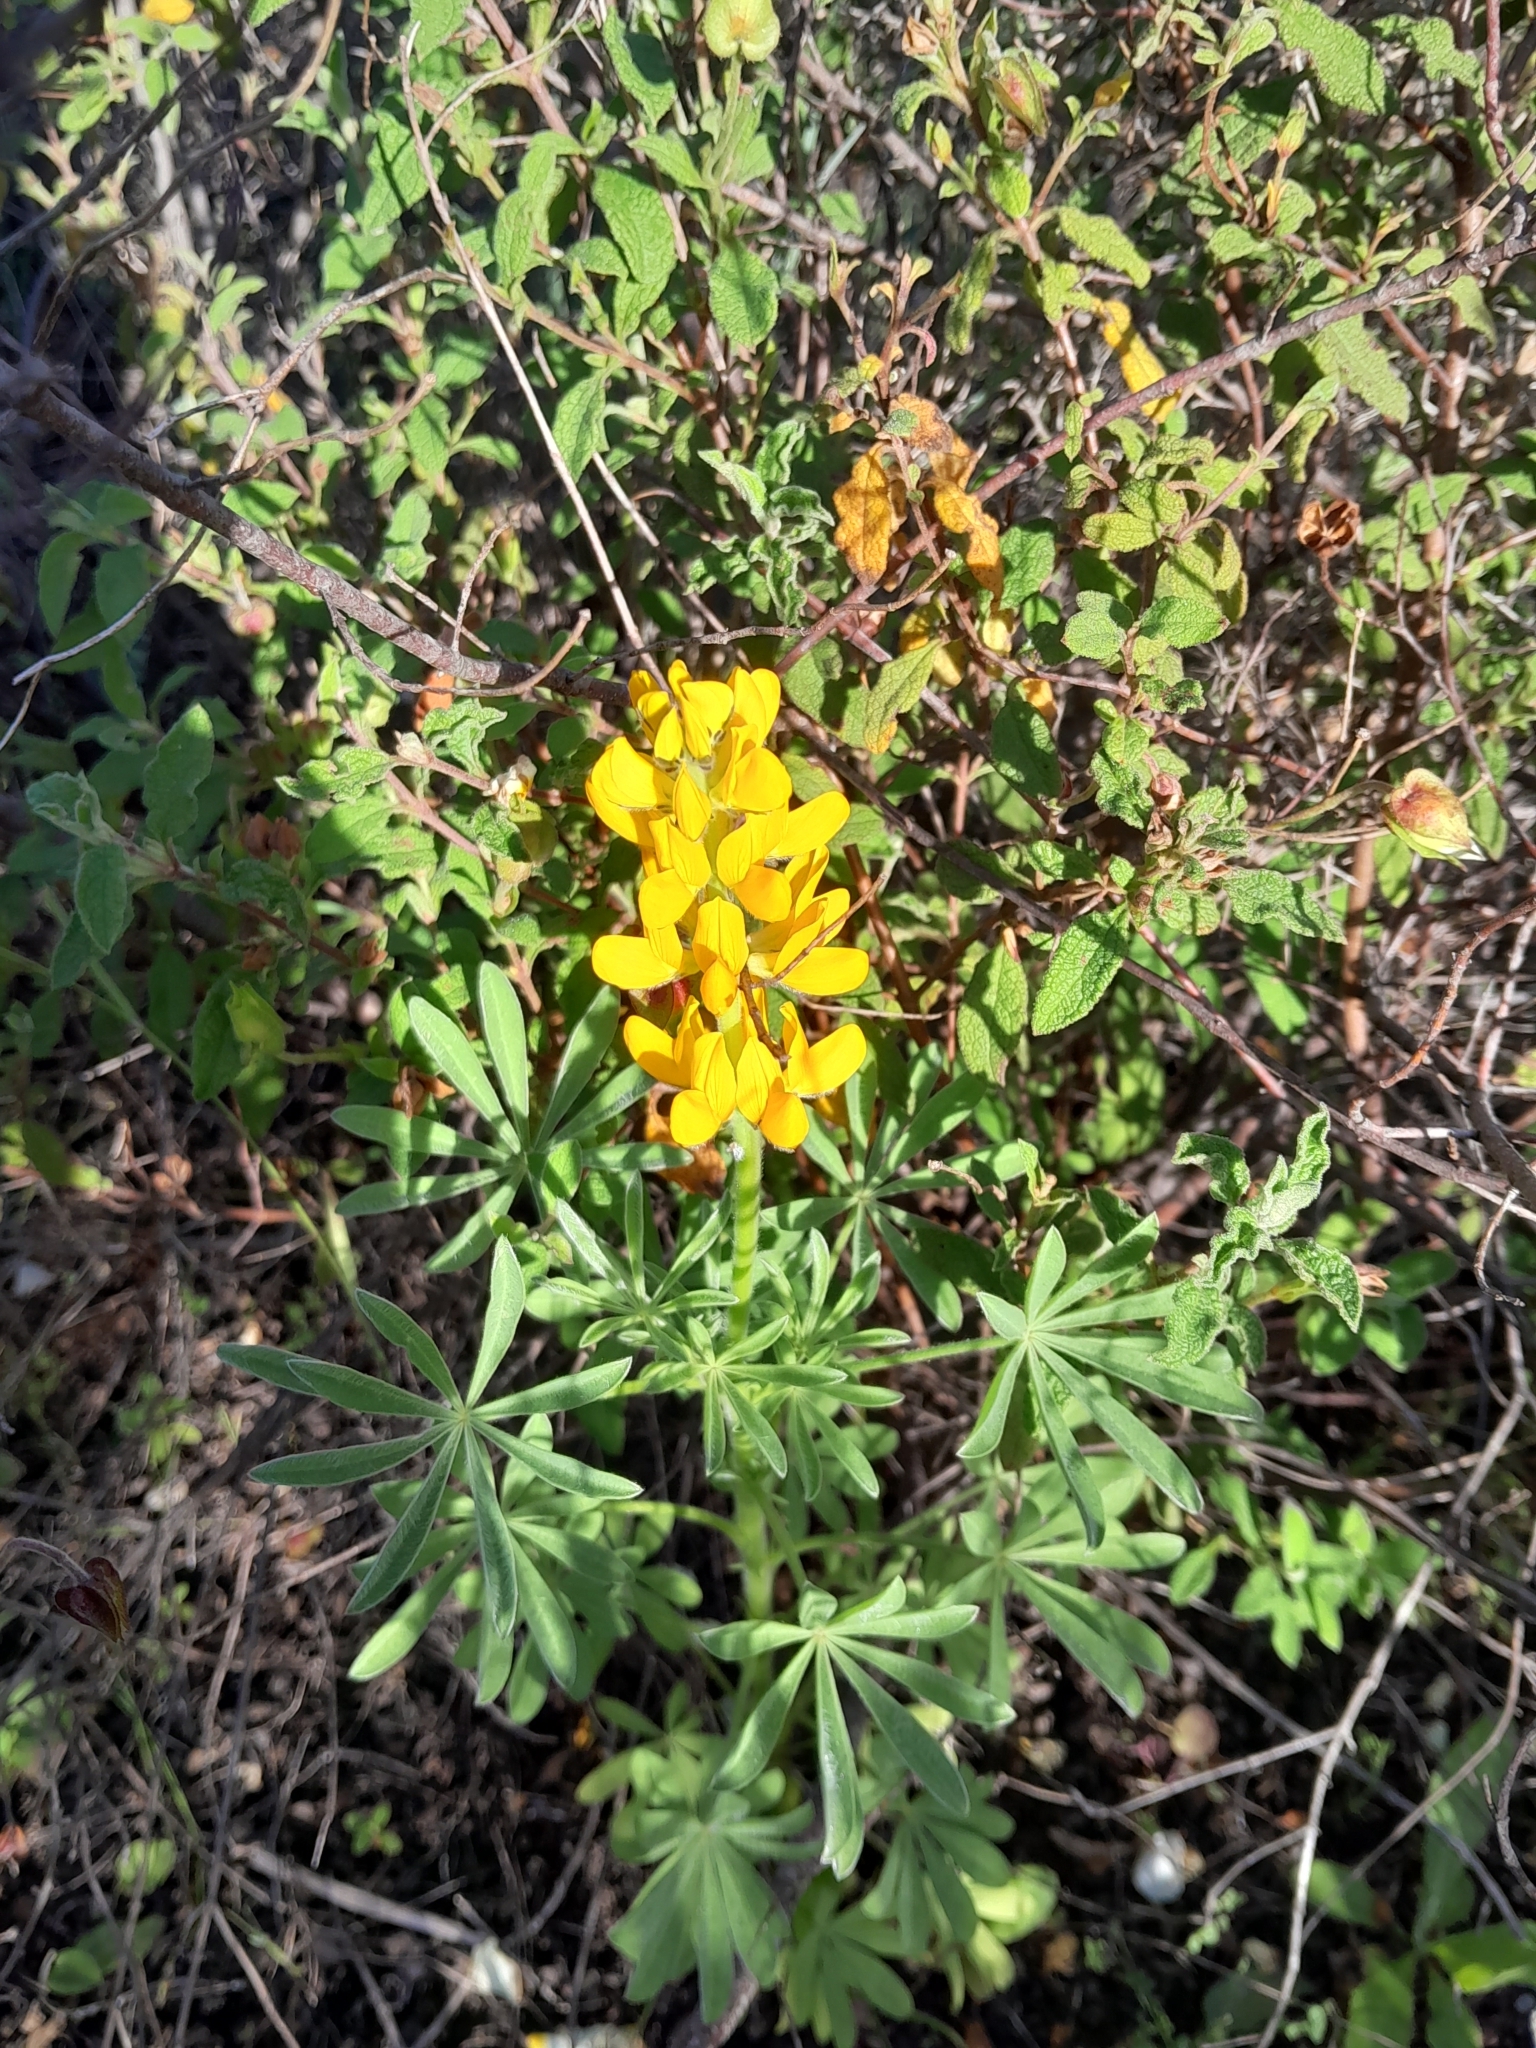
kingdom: Plantae
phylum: Tracheophyta
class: Magnoliopsida
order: Fabales
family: Fabaceae
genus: Lupinus
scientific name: Lupinus luteus
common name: European yellow lupine
